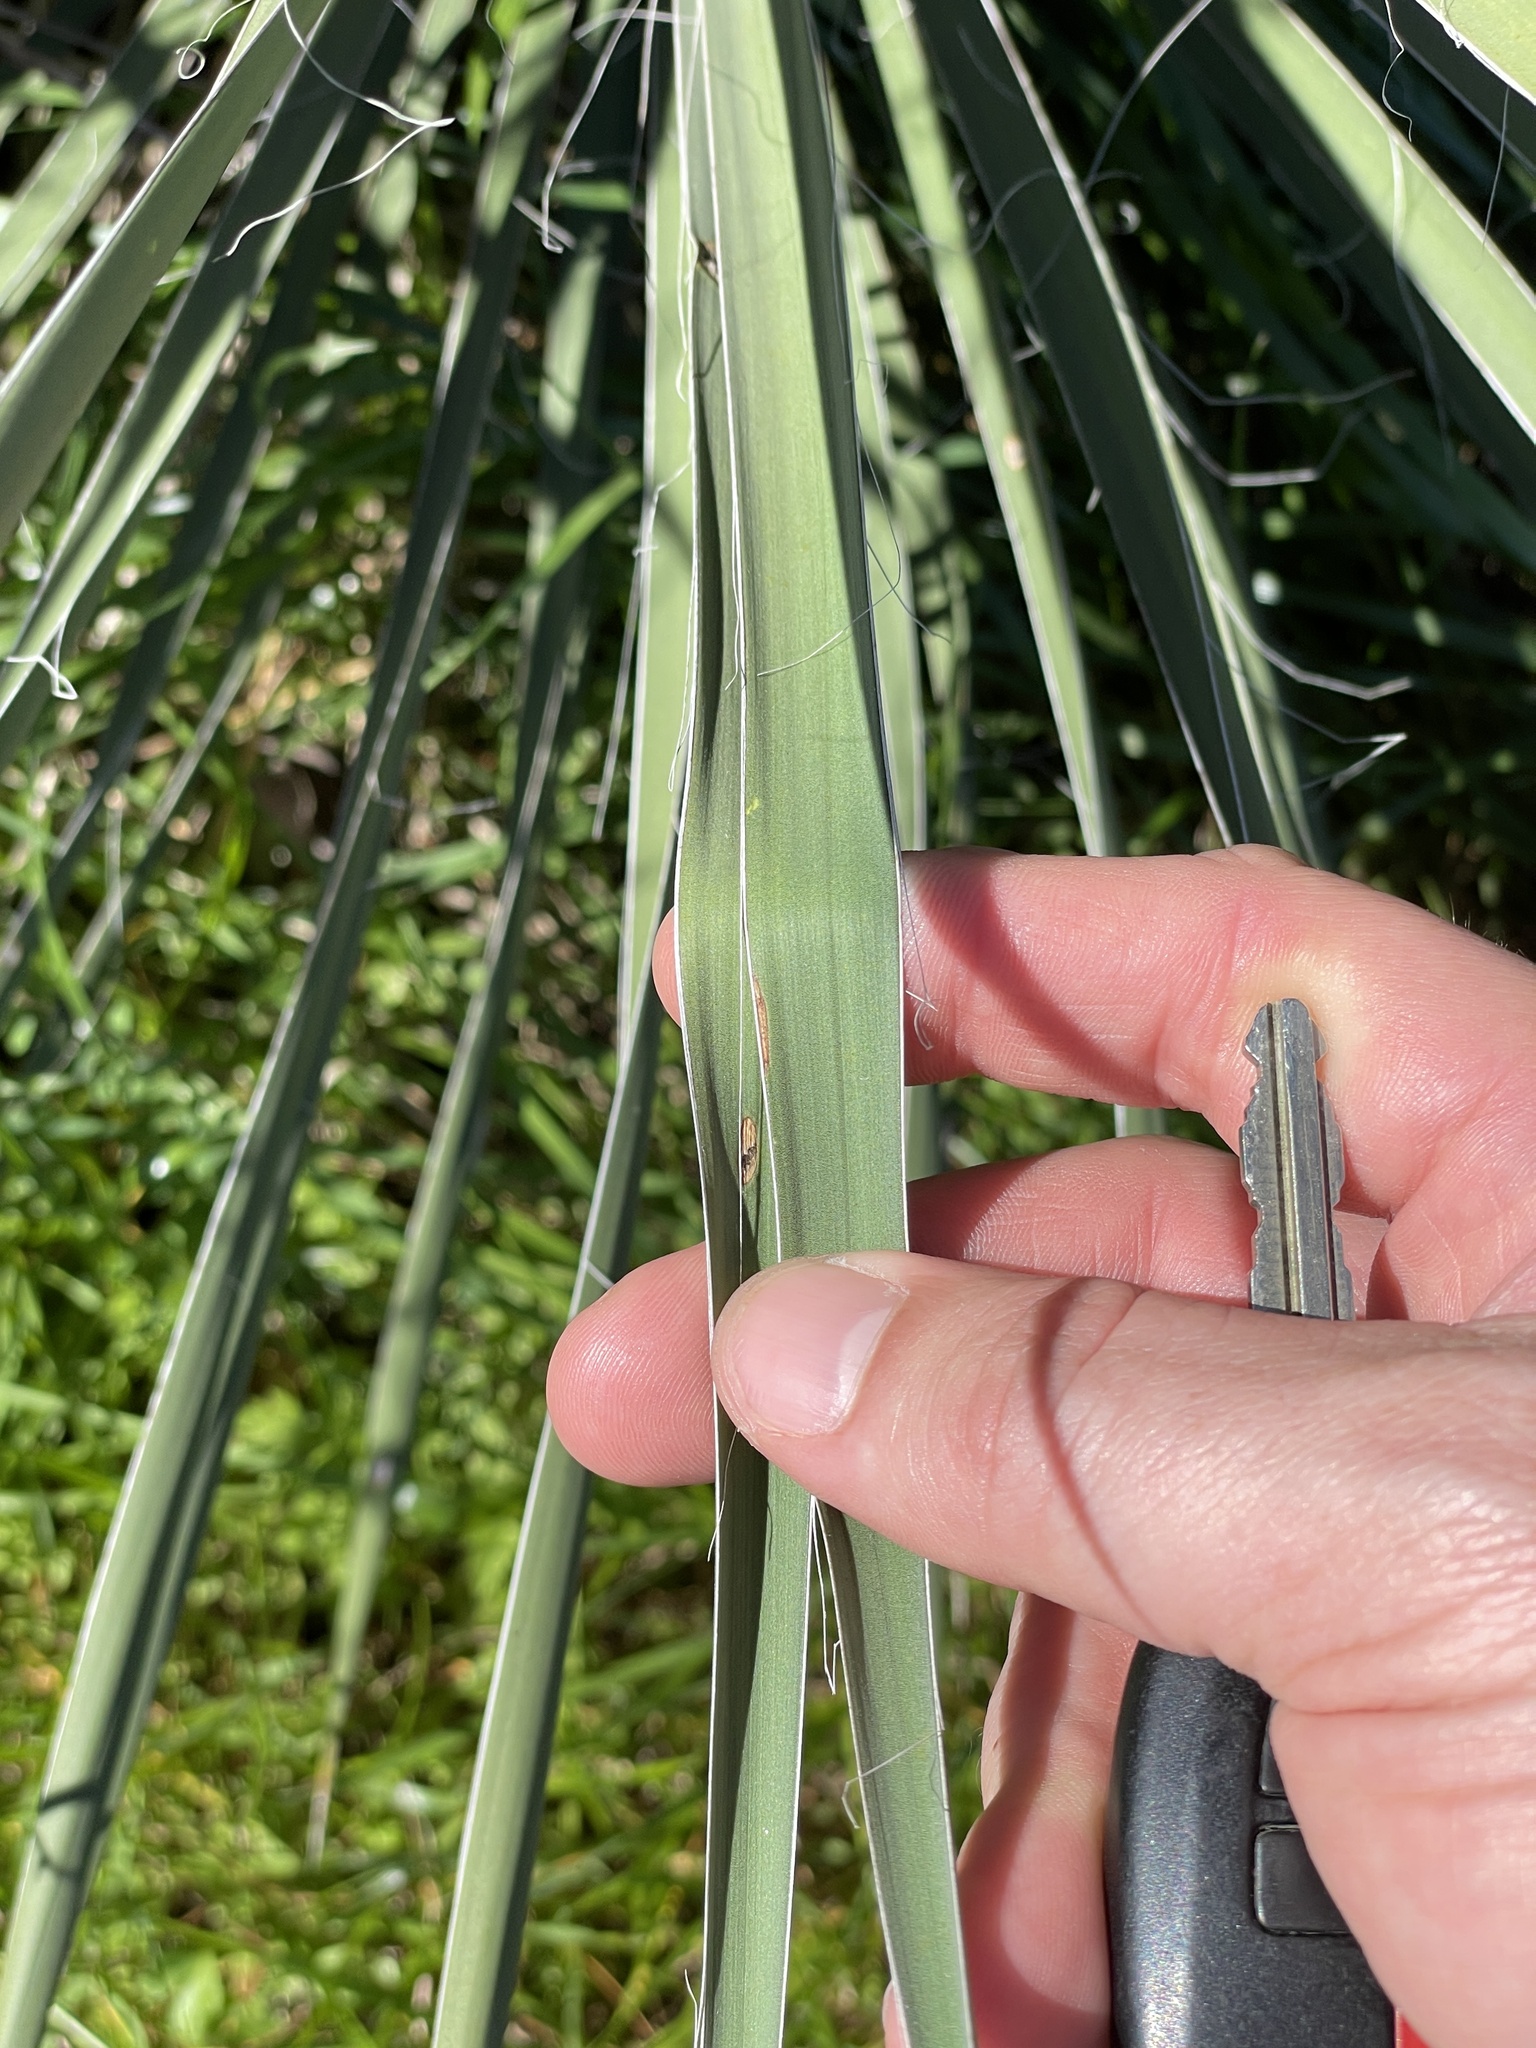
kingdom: Plantae
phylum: Tracheophyta
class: Liliopsida
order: Asparagales
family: Asparagaceae
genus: Yucca
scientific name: Yucca constricta
